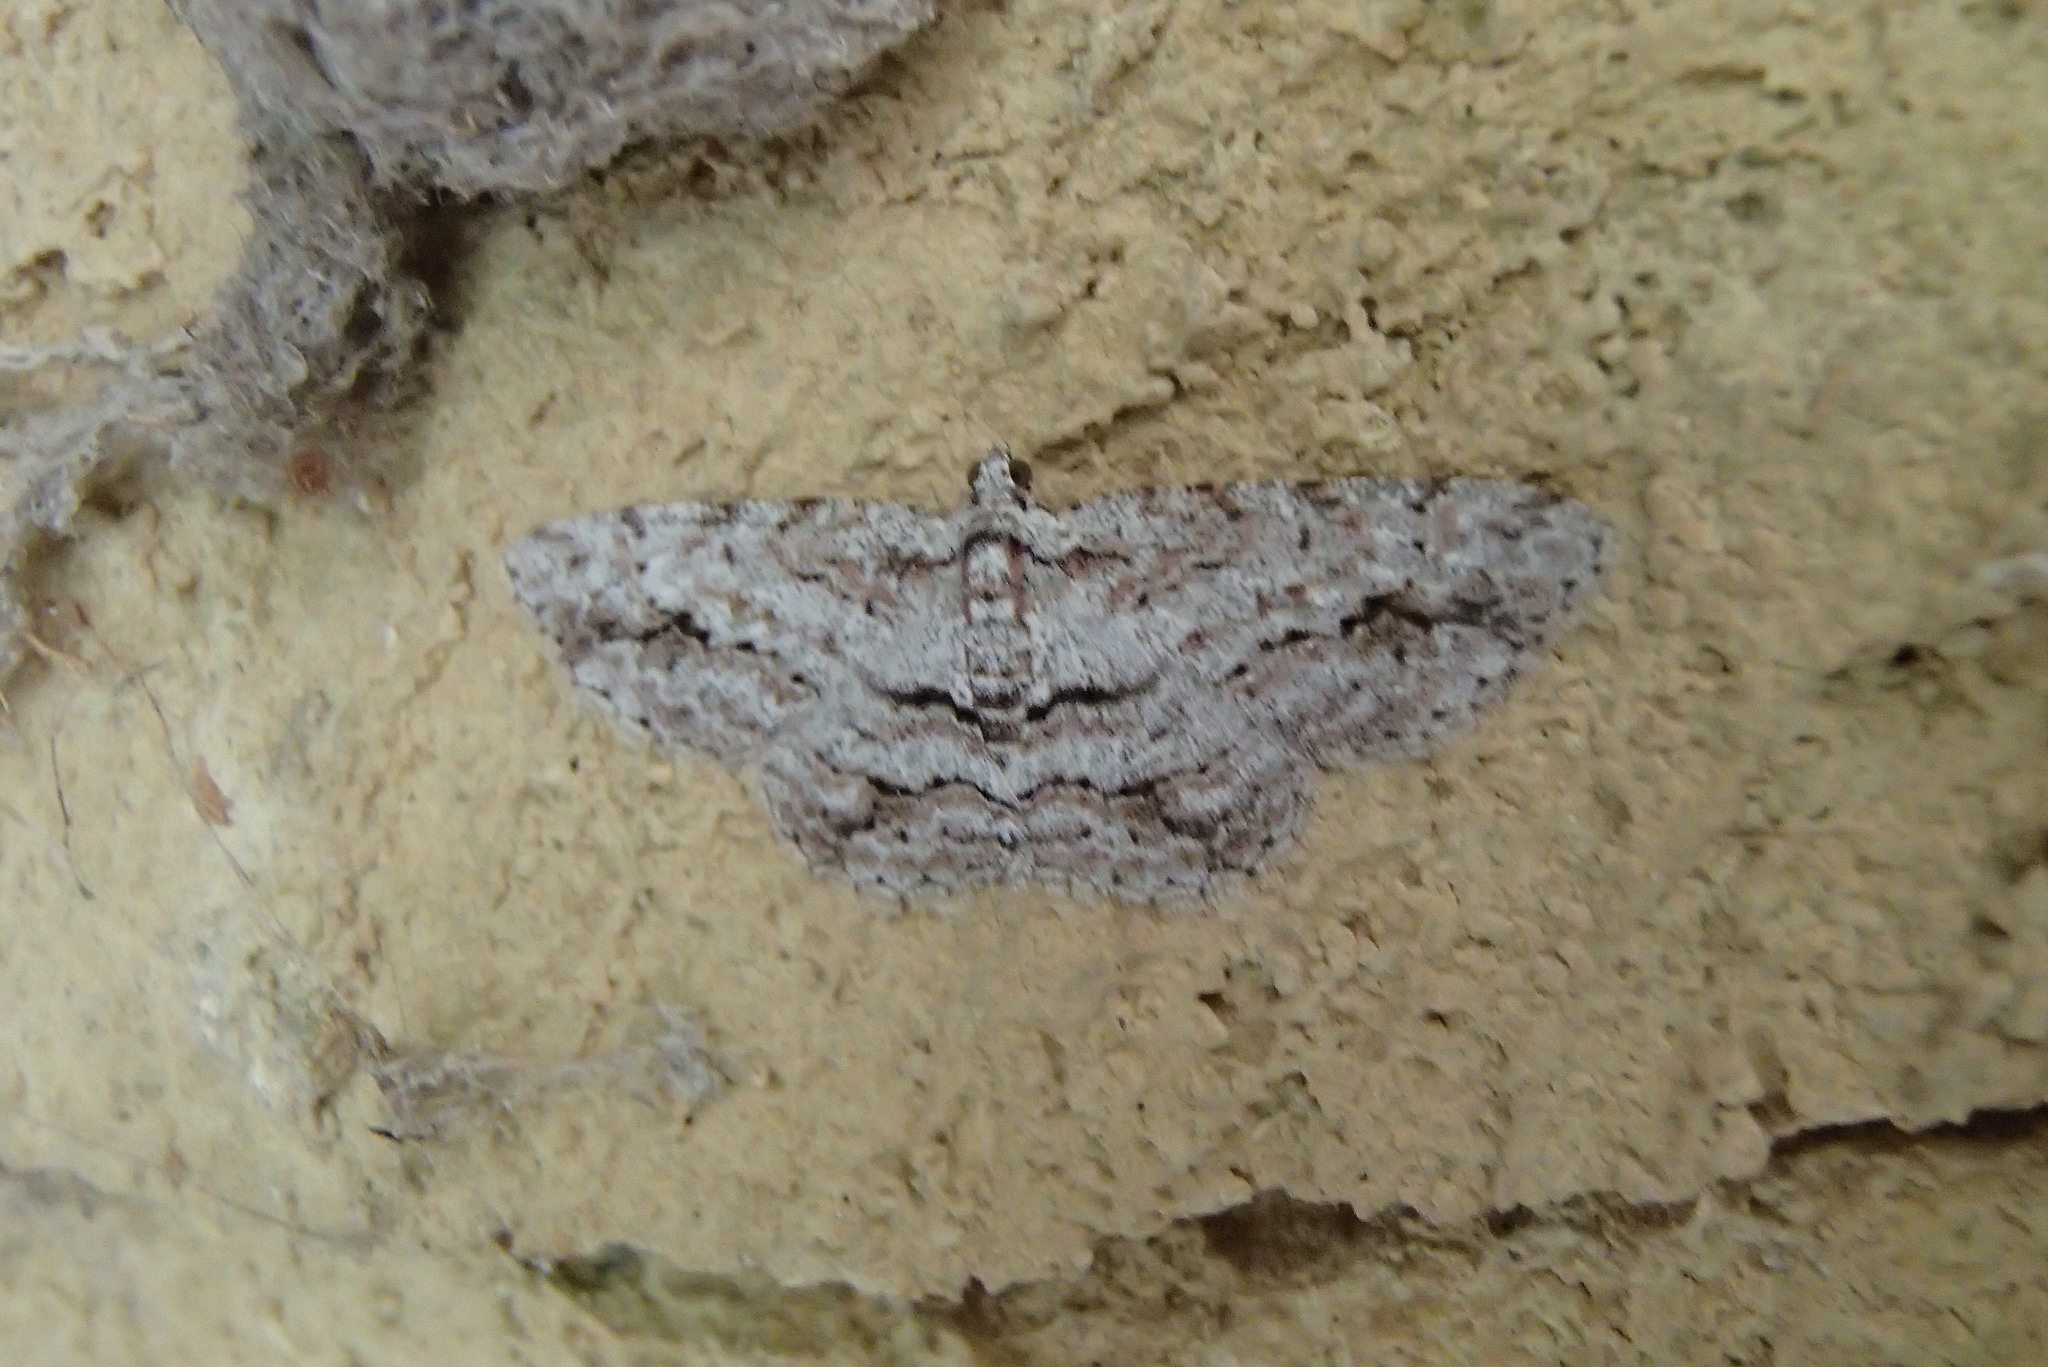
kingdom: Animalia
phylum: Arthropoda
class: Insecta
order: Lepidoptera
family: Geometridae
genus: Didymoctenia
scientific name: Didymoctenia exsuperata
